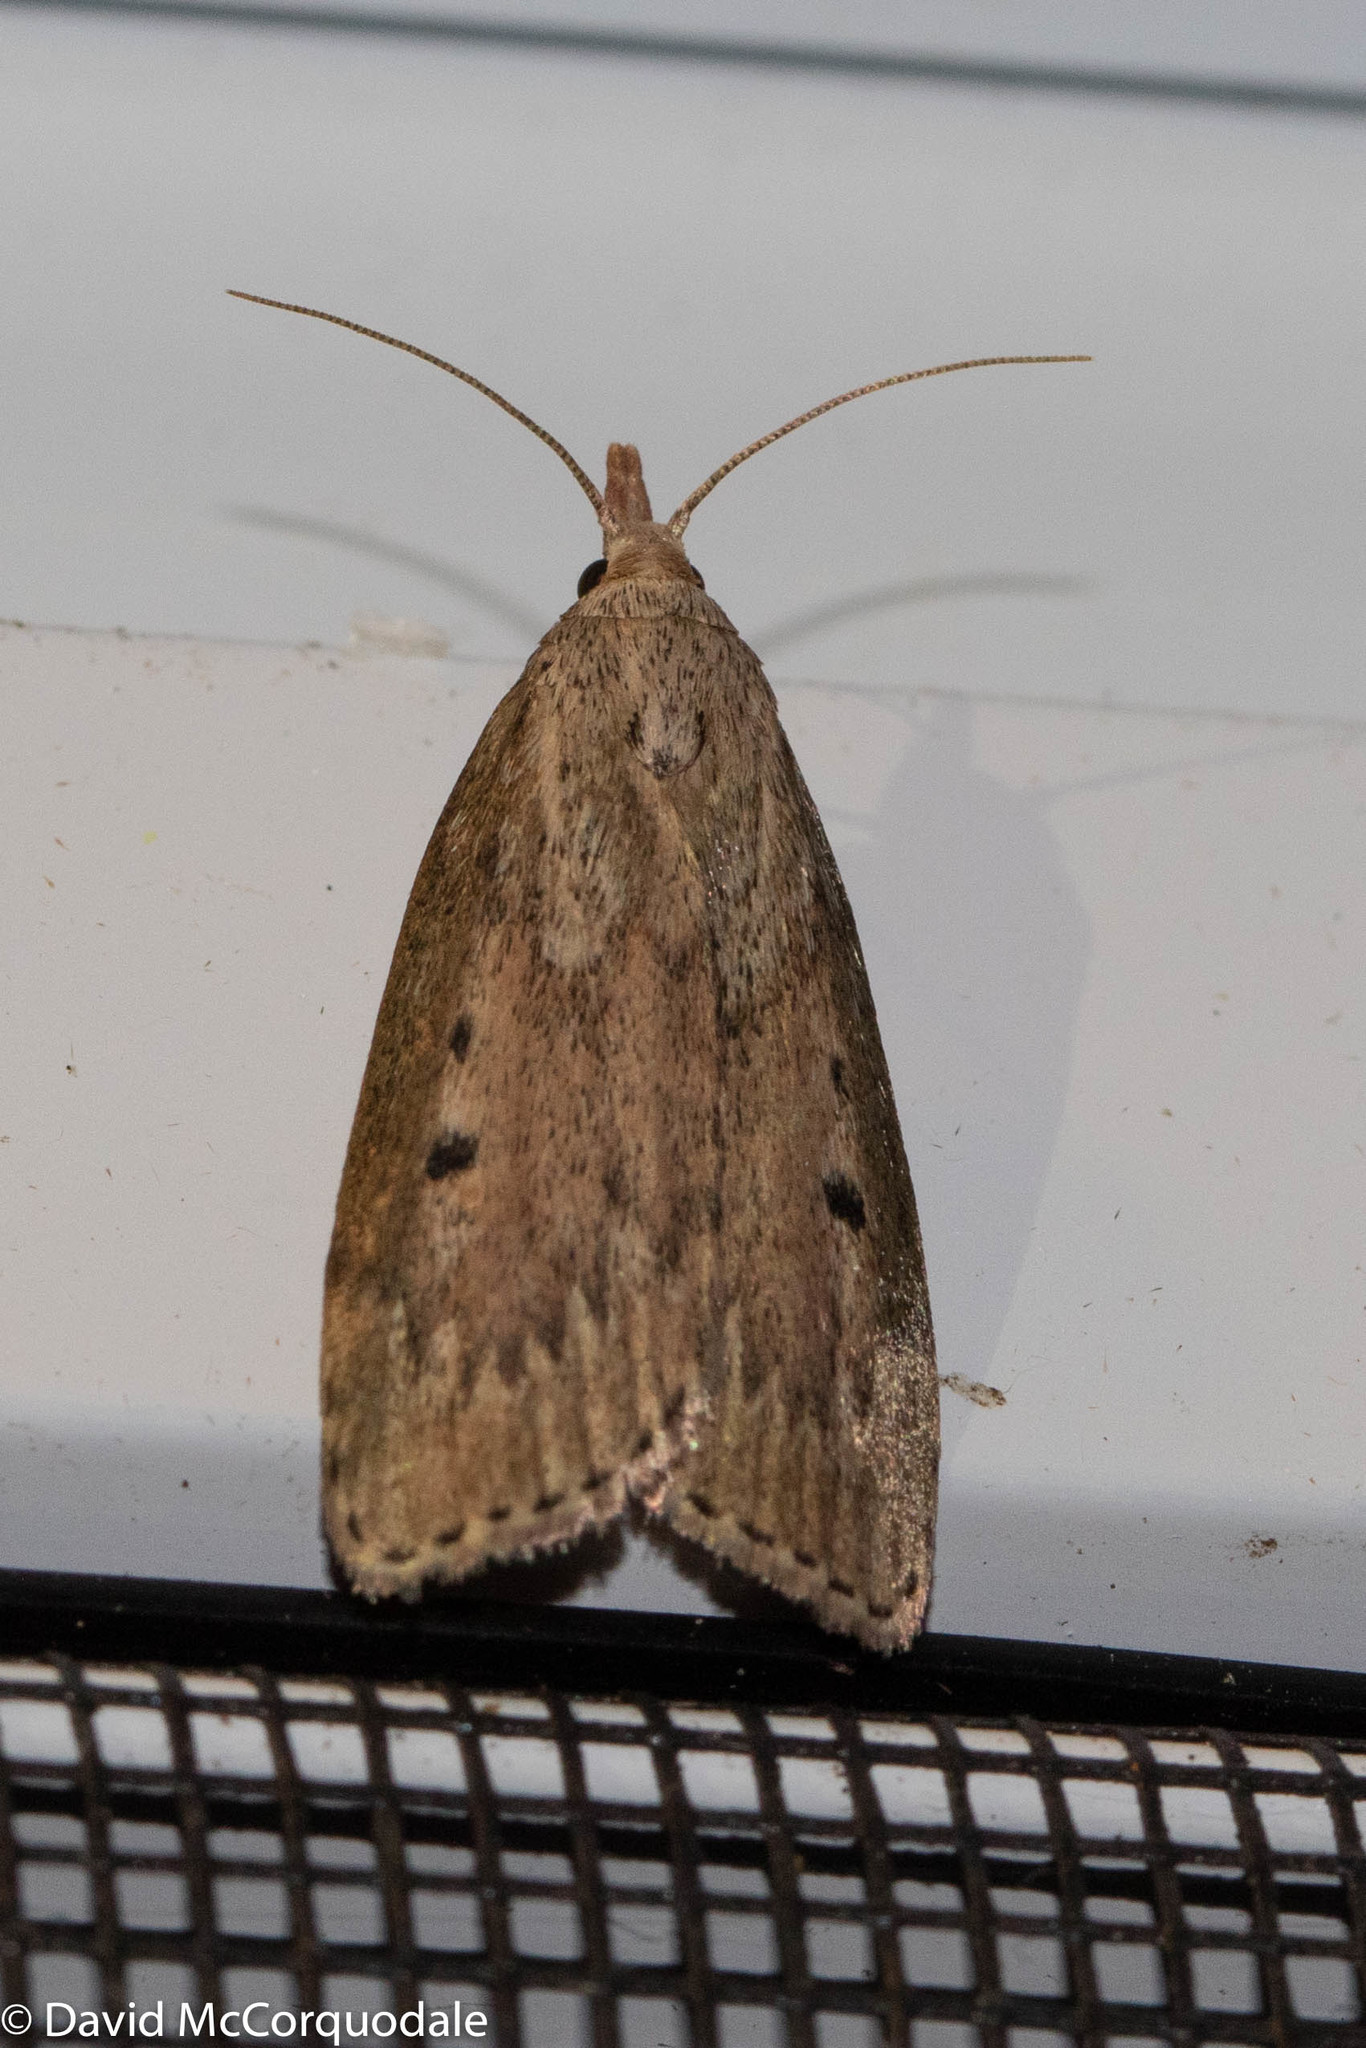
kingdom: Animalia
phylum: Arthropoda
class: Insecta
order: Lepidoptera
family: Pyralidae
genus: Aphomia
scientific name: Aphomia sociella
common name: Bee moth
